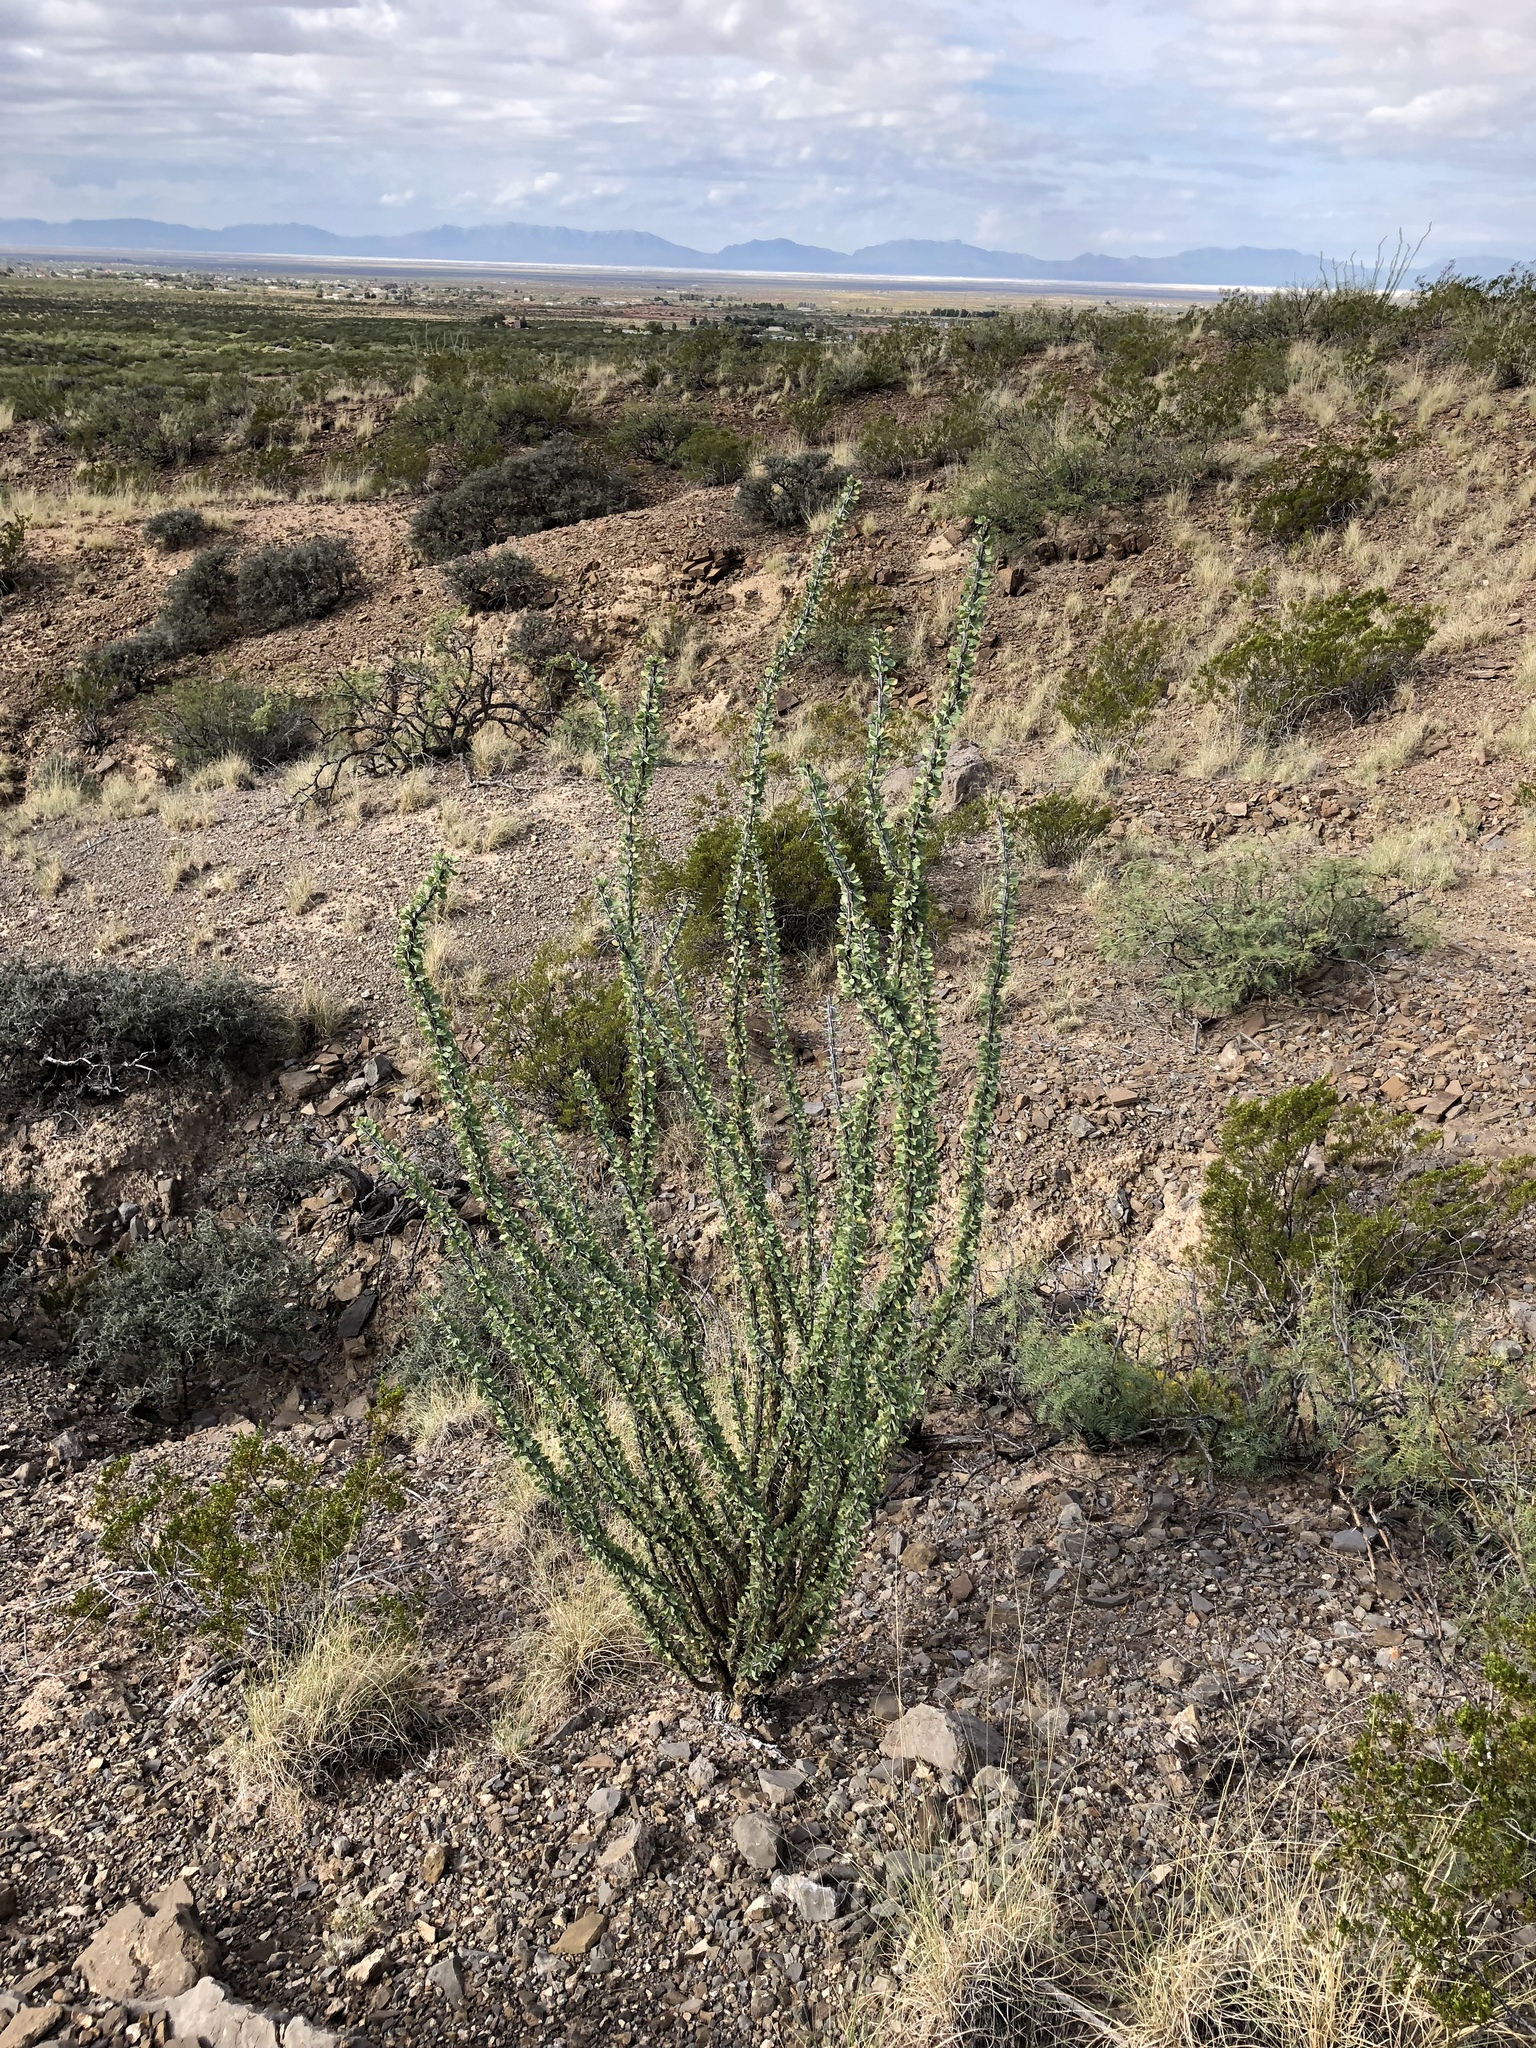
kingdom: Plantae
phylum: Tracheophyta
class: Magnoliopsida
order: Ericales
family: Fouquieriaceae
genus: Fouquieria
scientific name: Fouquieria splendens
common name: Vine-cactus
